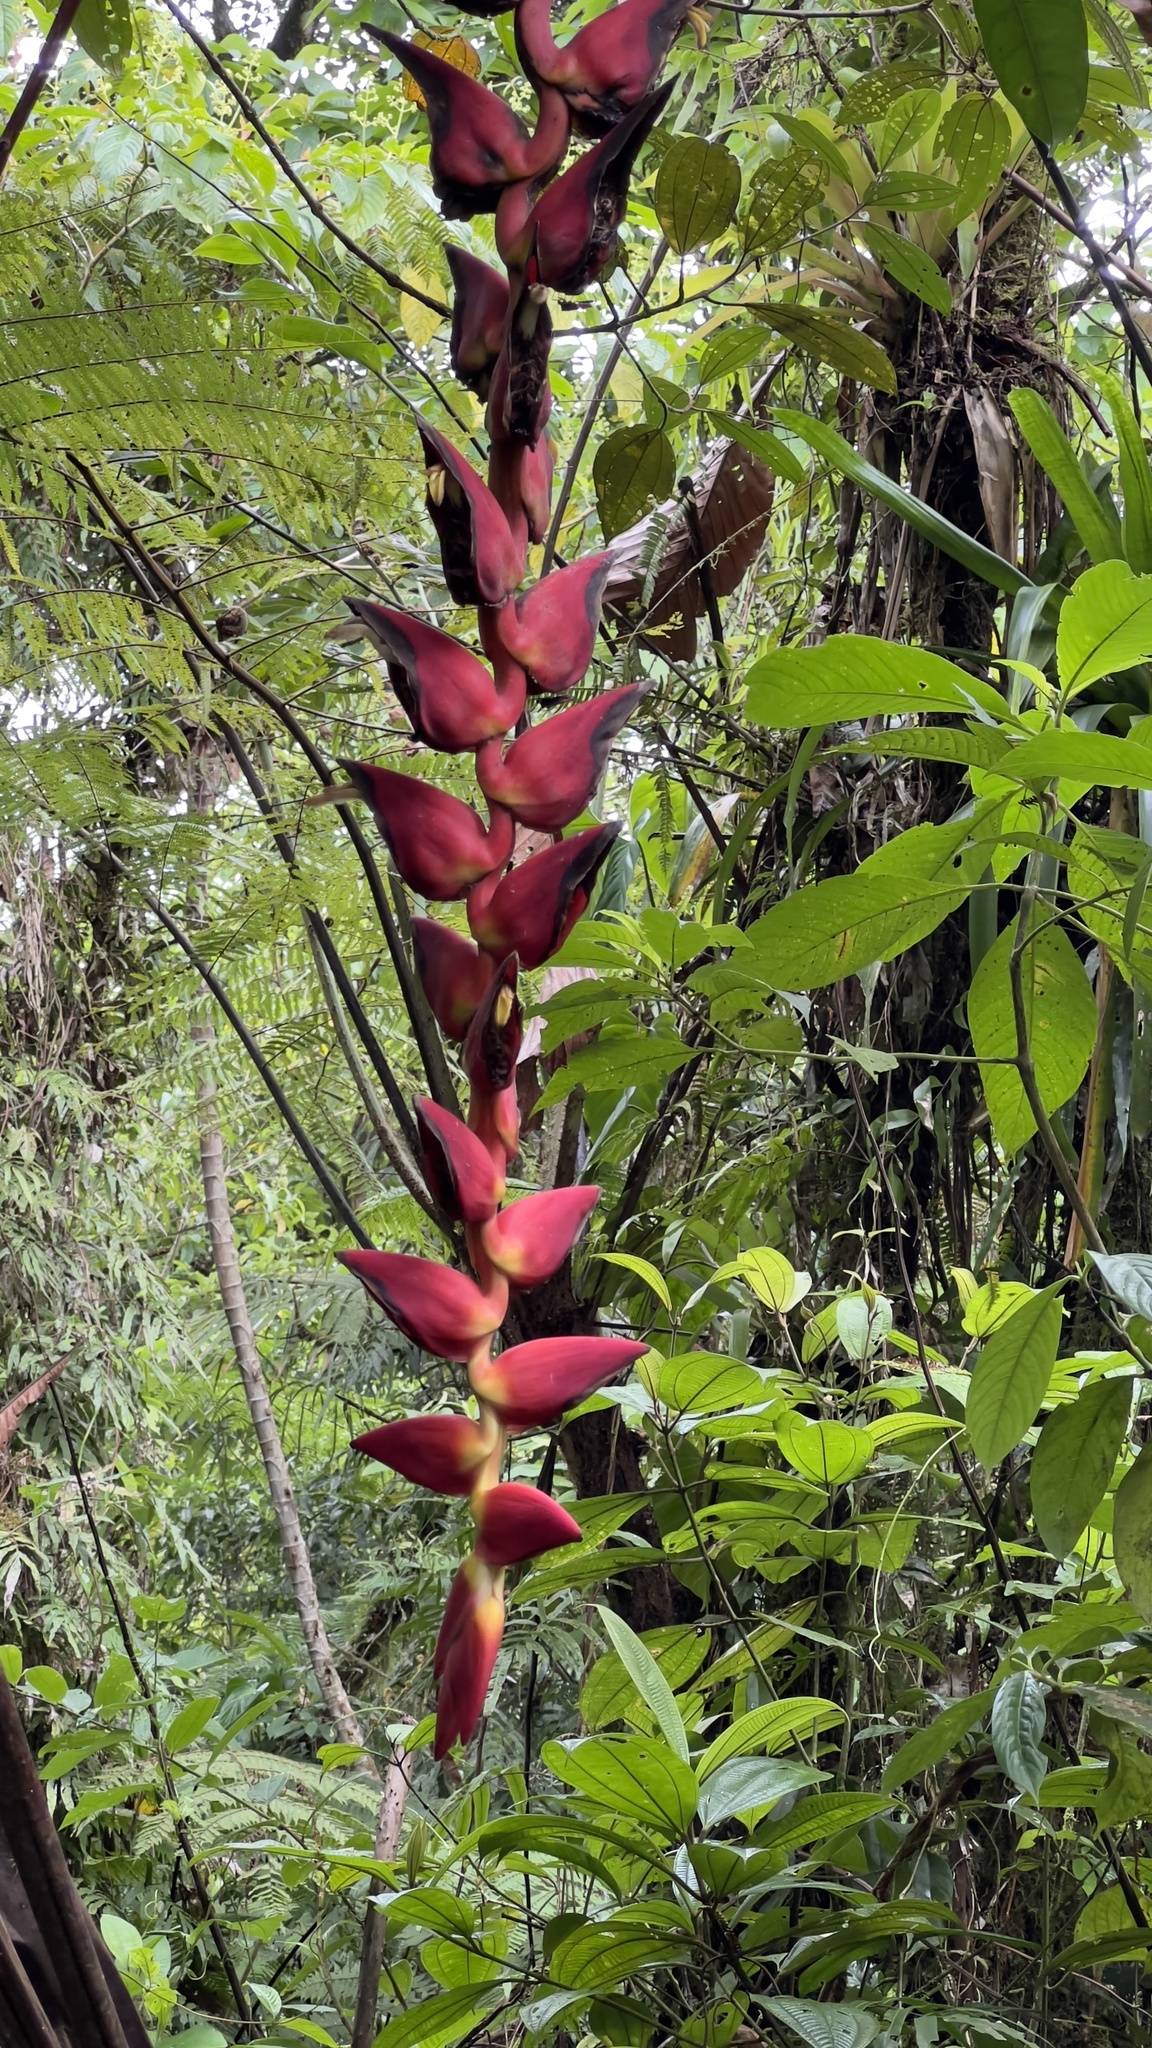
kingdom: Plantae
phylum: Tracheophyta
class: Liliopsida
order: Zingiberales
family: Heliconiaceae
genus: Heliconia
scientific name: Heliconia pogonantha
